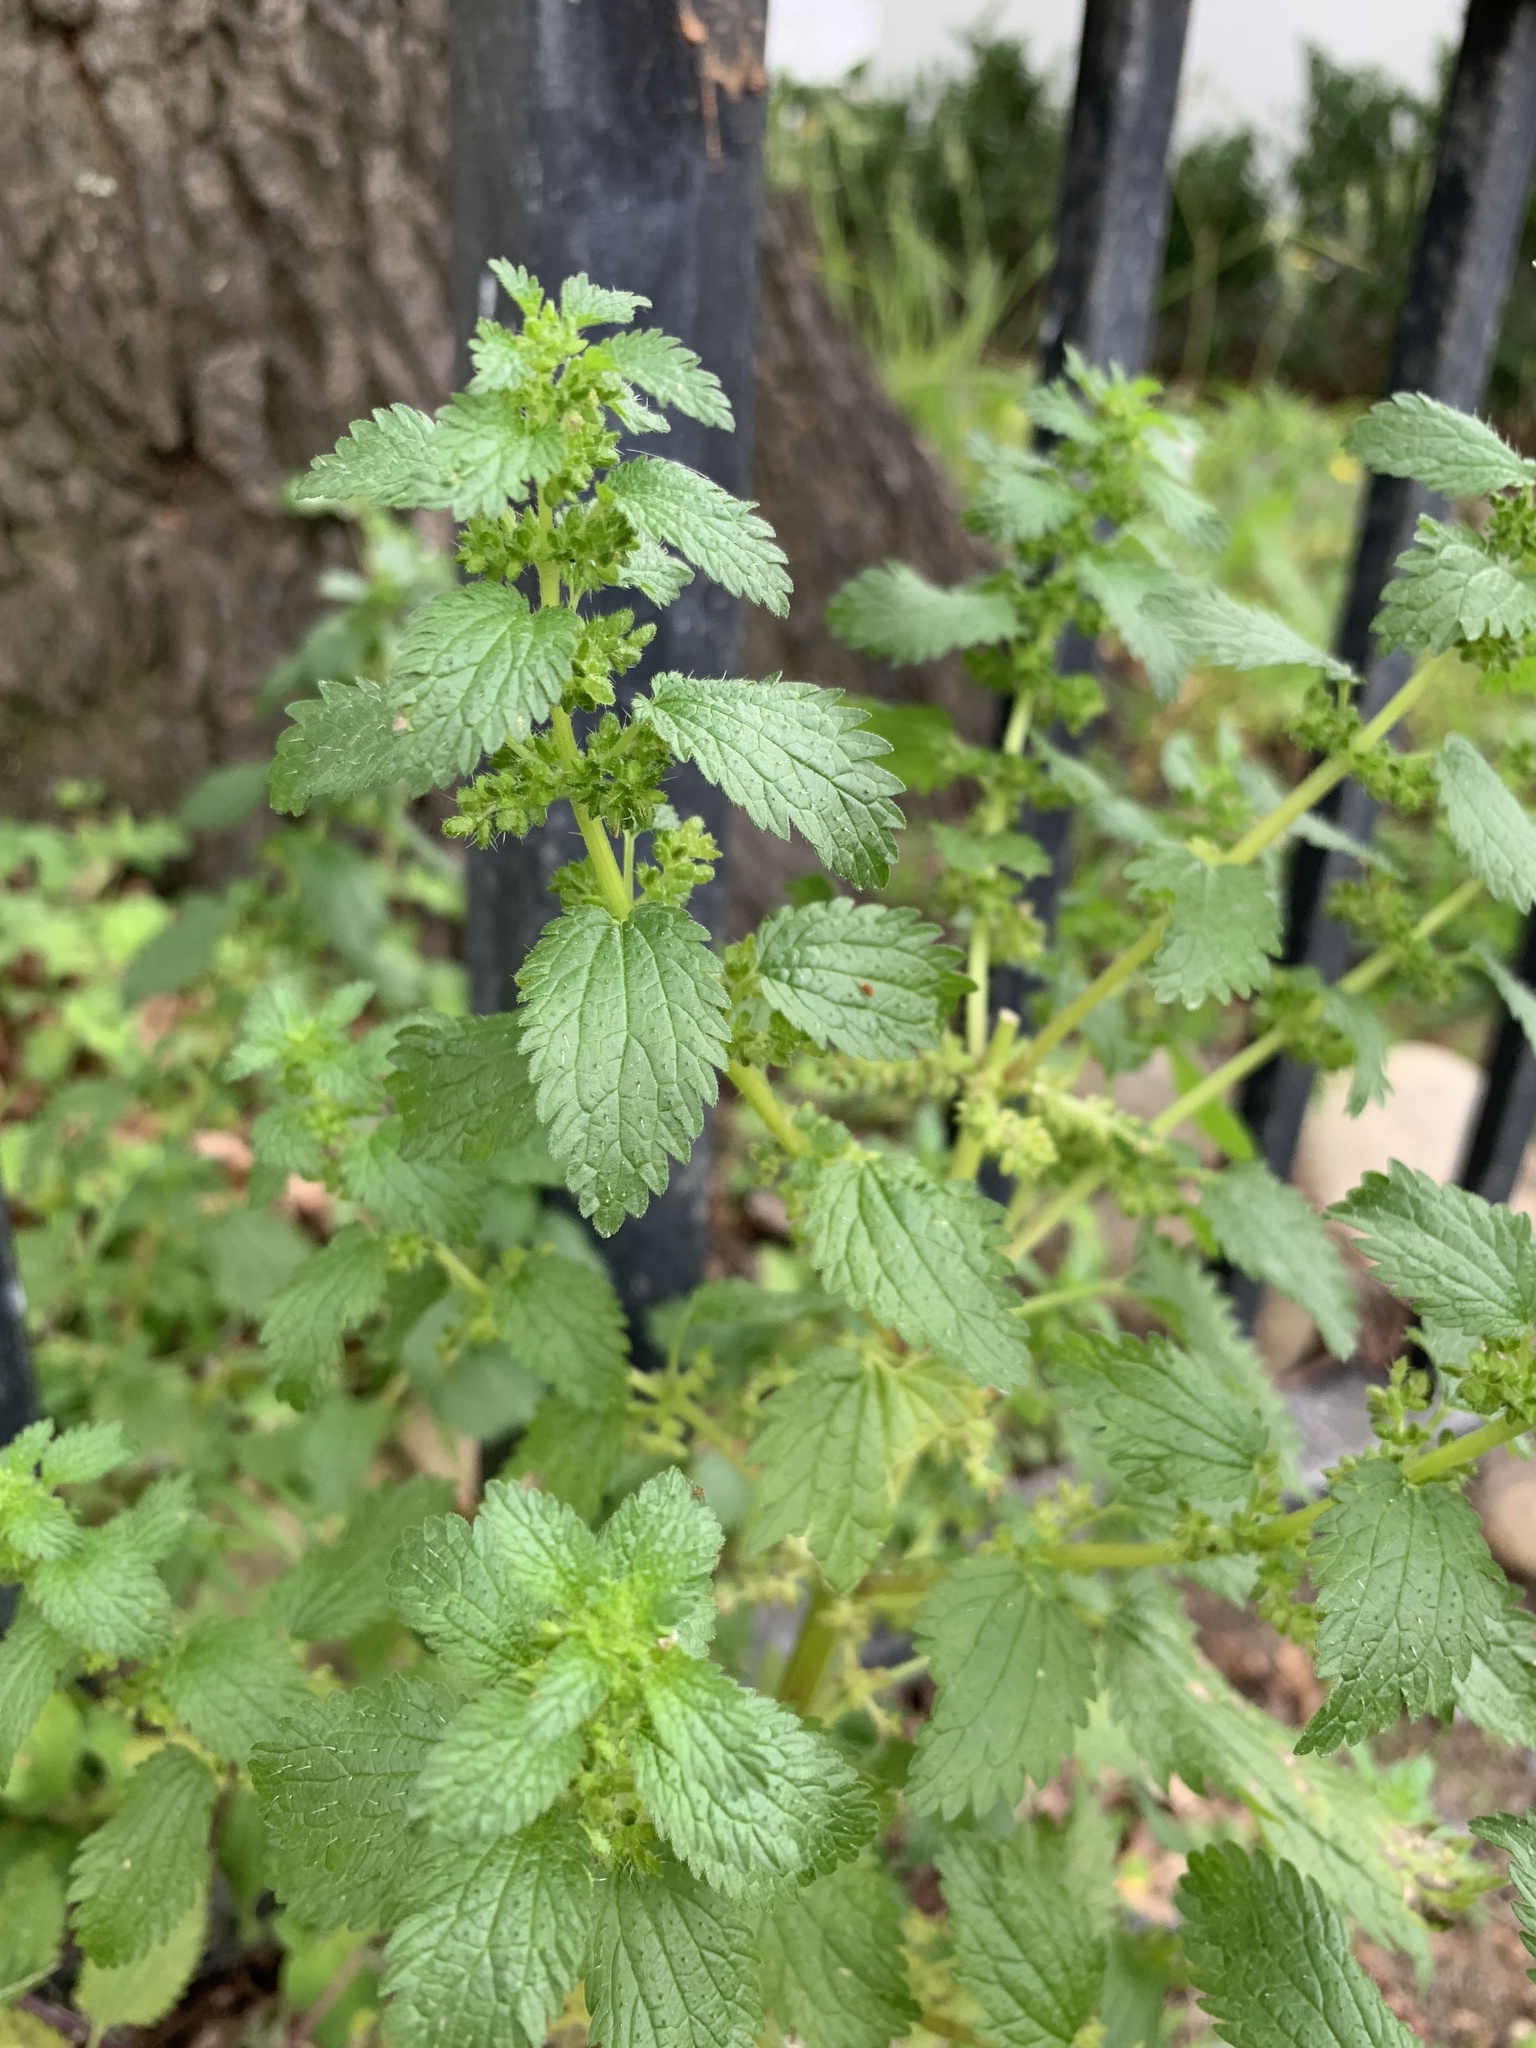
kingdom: Plantae
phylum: Tracheophyta
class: Magnoliopsida
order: Rosales
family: Urticaceae
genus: Urtica
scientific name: Urtica urens
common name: Dwarf nettle
